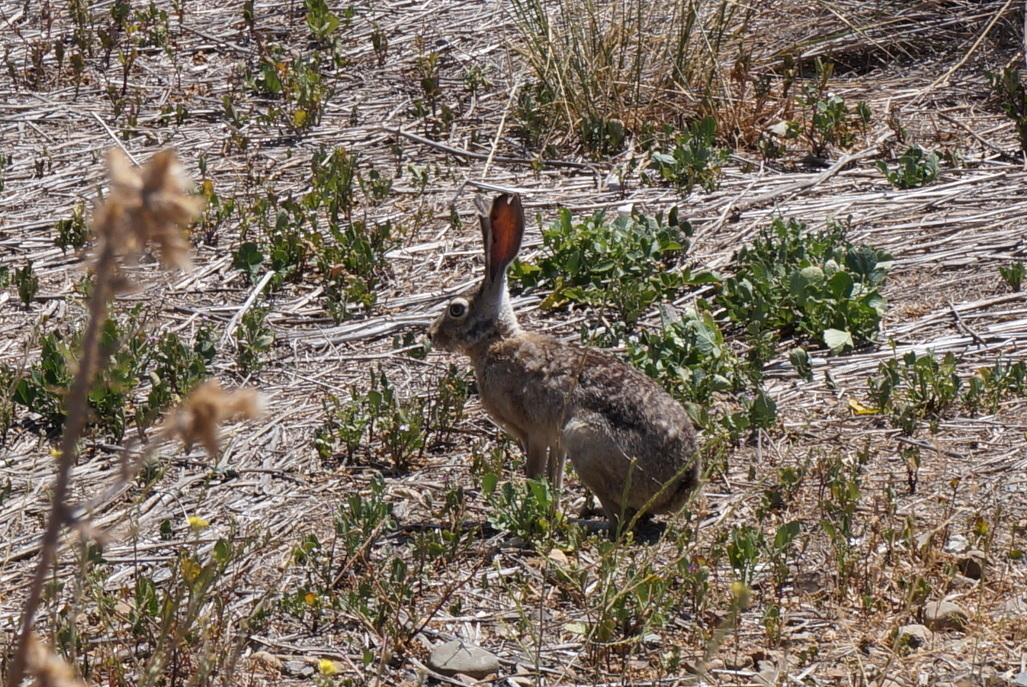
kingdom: Animalia
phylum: Chordata
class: Mammalia
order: Lagomorpha
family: Leporidae
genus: Lepus
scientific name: Lepus californicus
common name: Black-tailed jackrabbit
